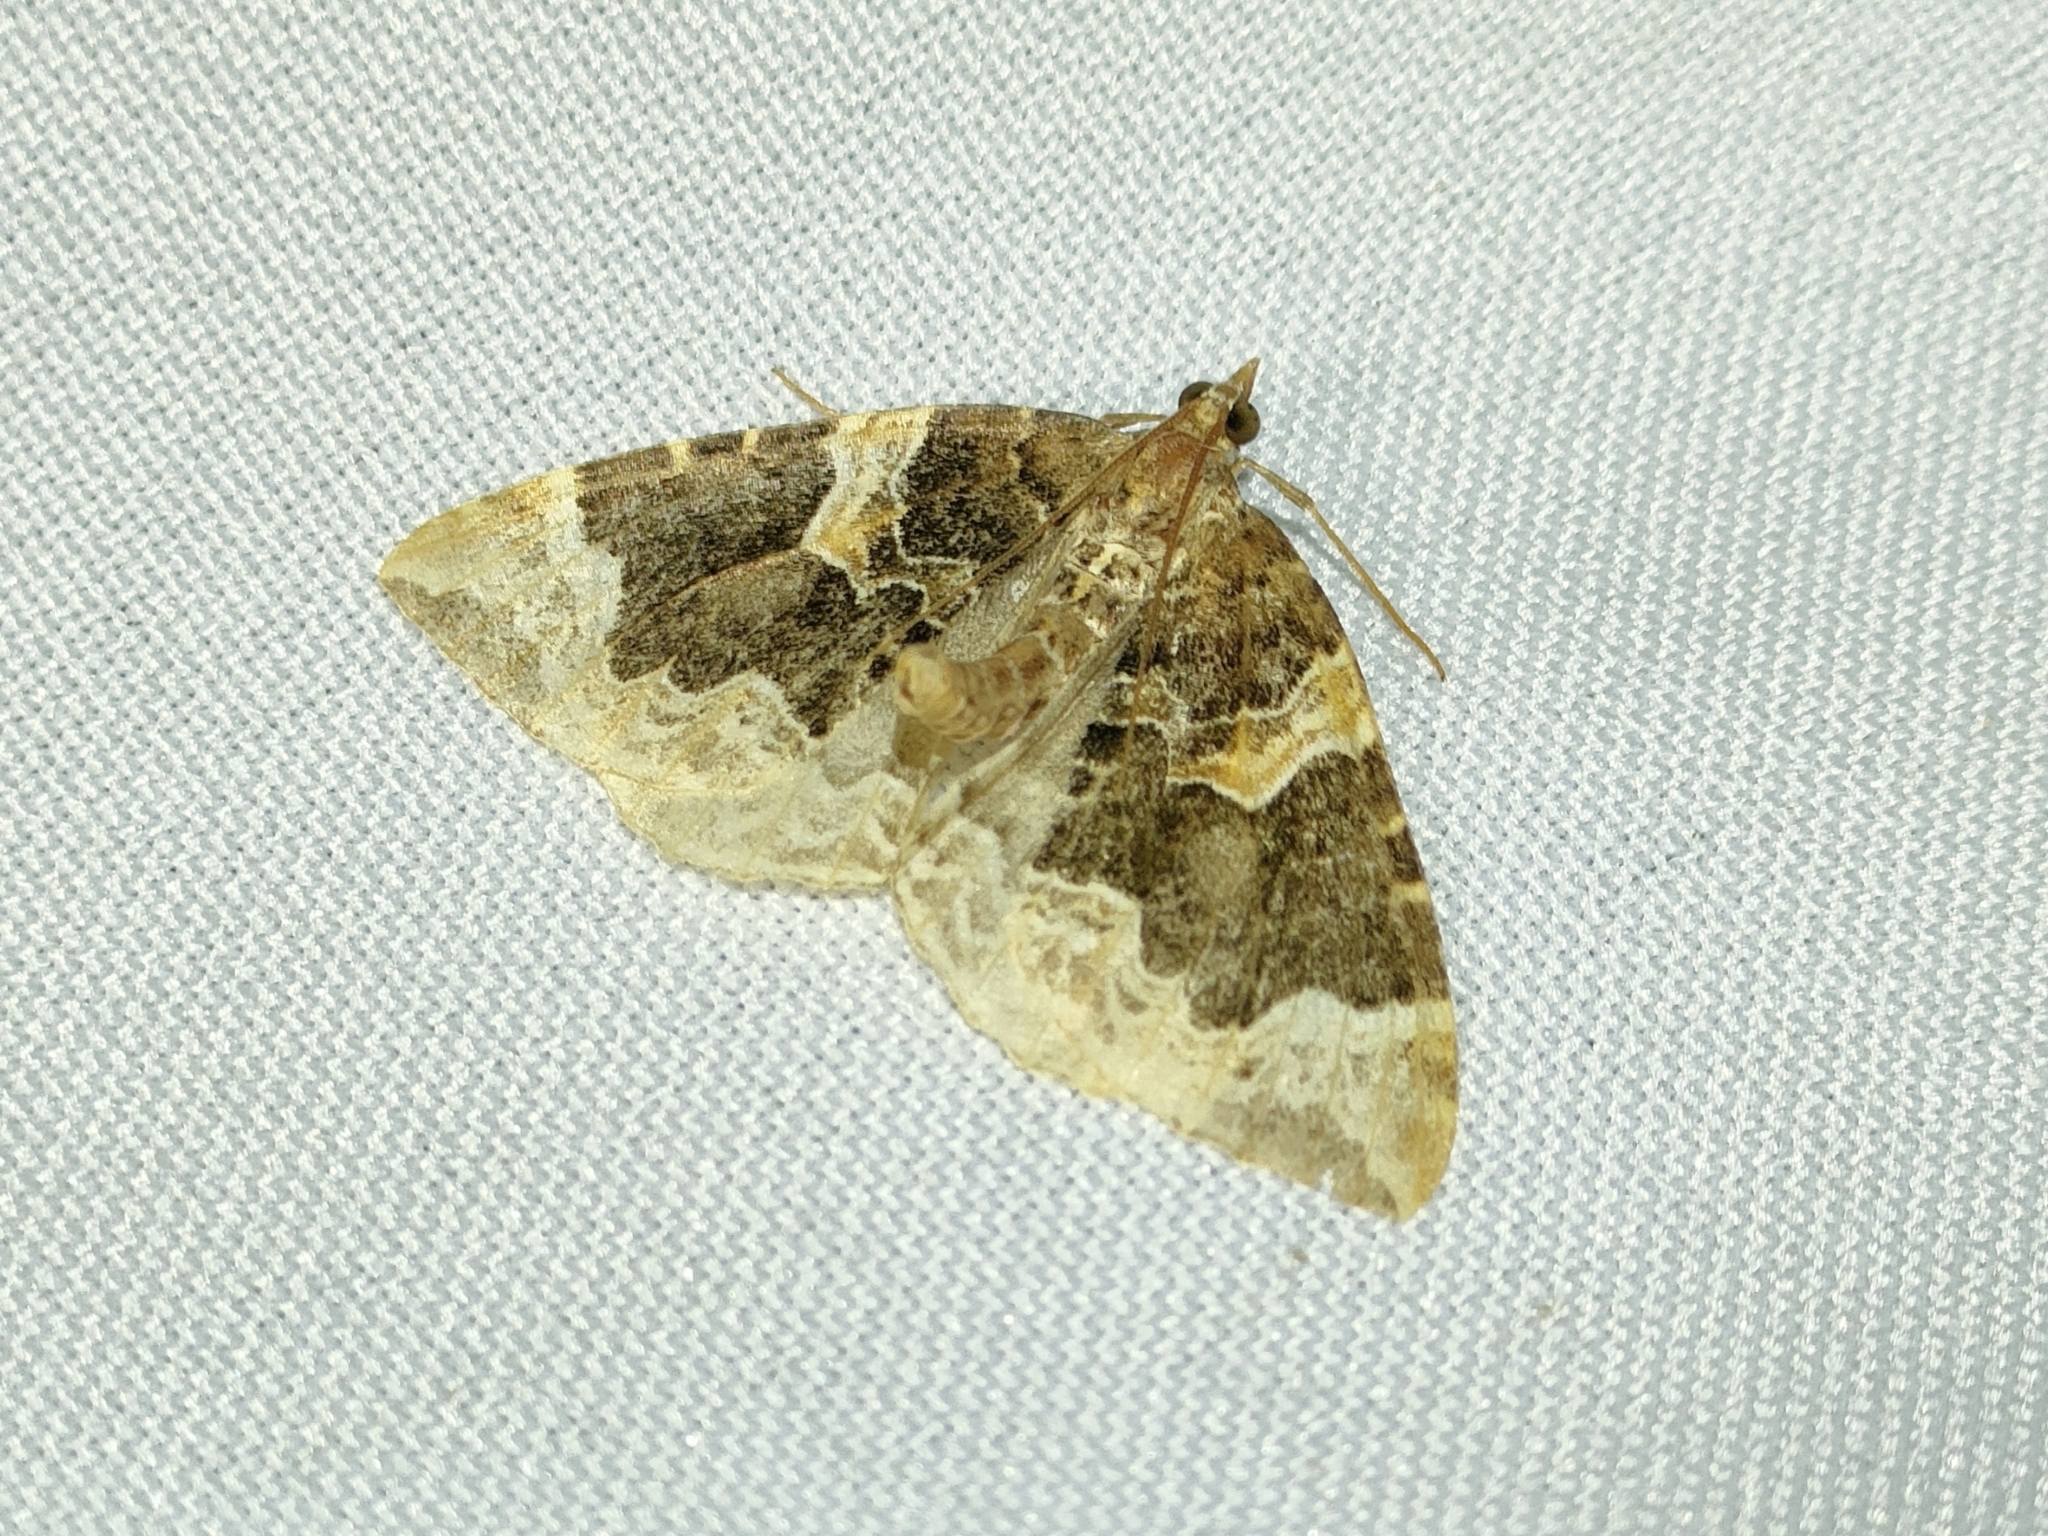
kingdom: Animalia
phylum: Arthropoda
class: Insecta
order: Lepidoptera
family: Geometridae
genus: Eulithis
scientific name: Eulithis prunata
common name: Phoenix
